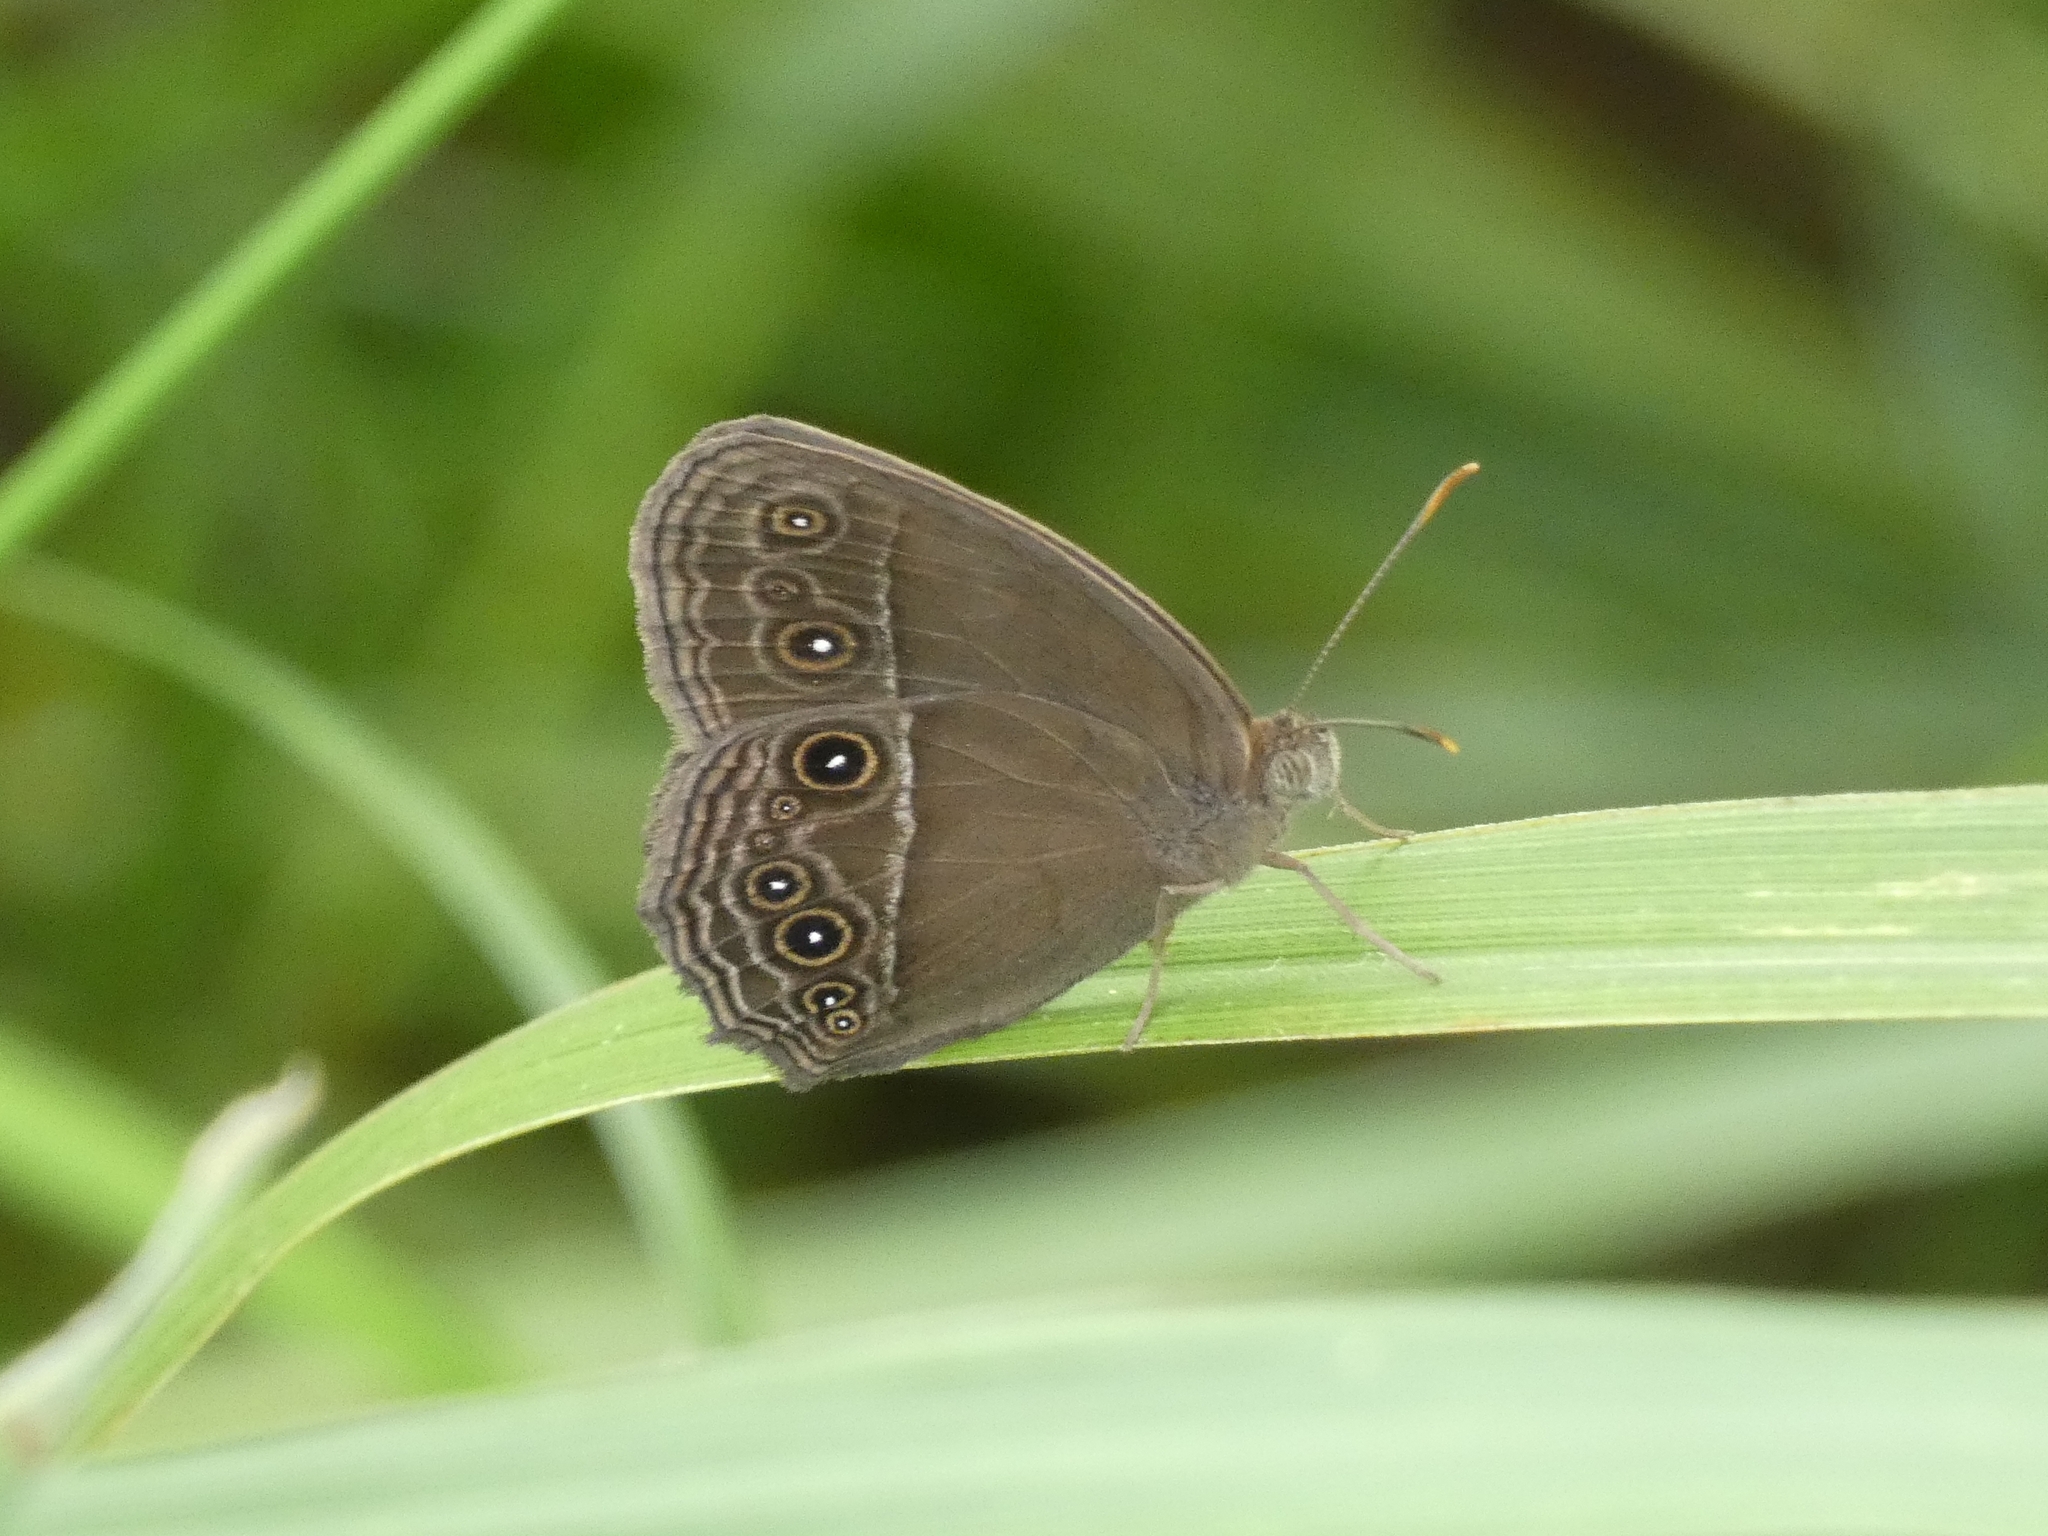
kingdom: Animalia
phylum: Arthropoda
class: Insecta
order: Lepidoptera
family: Nymphalidae
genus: Mycalesis
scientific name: Mycalesis perseus
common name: Dingy bushbrown
